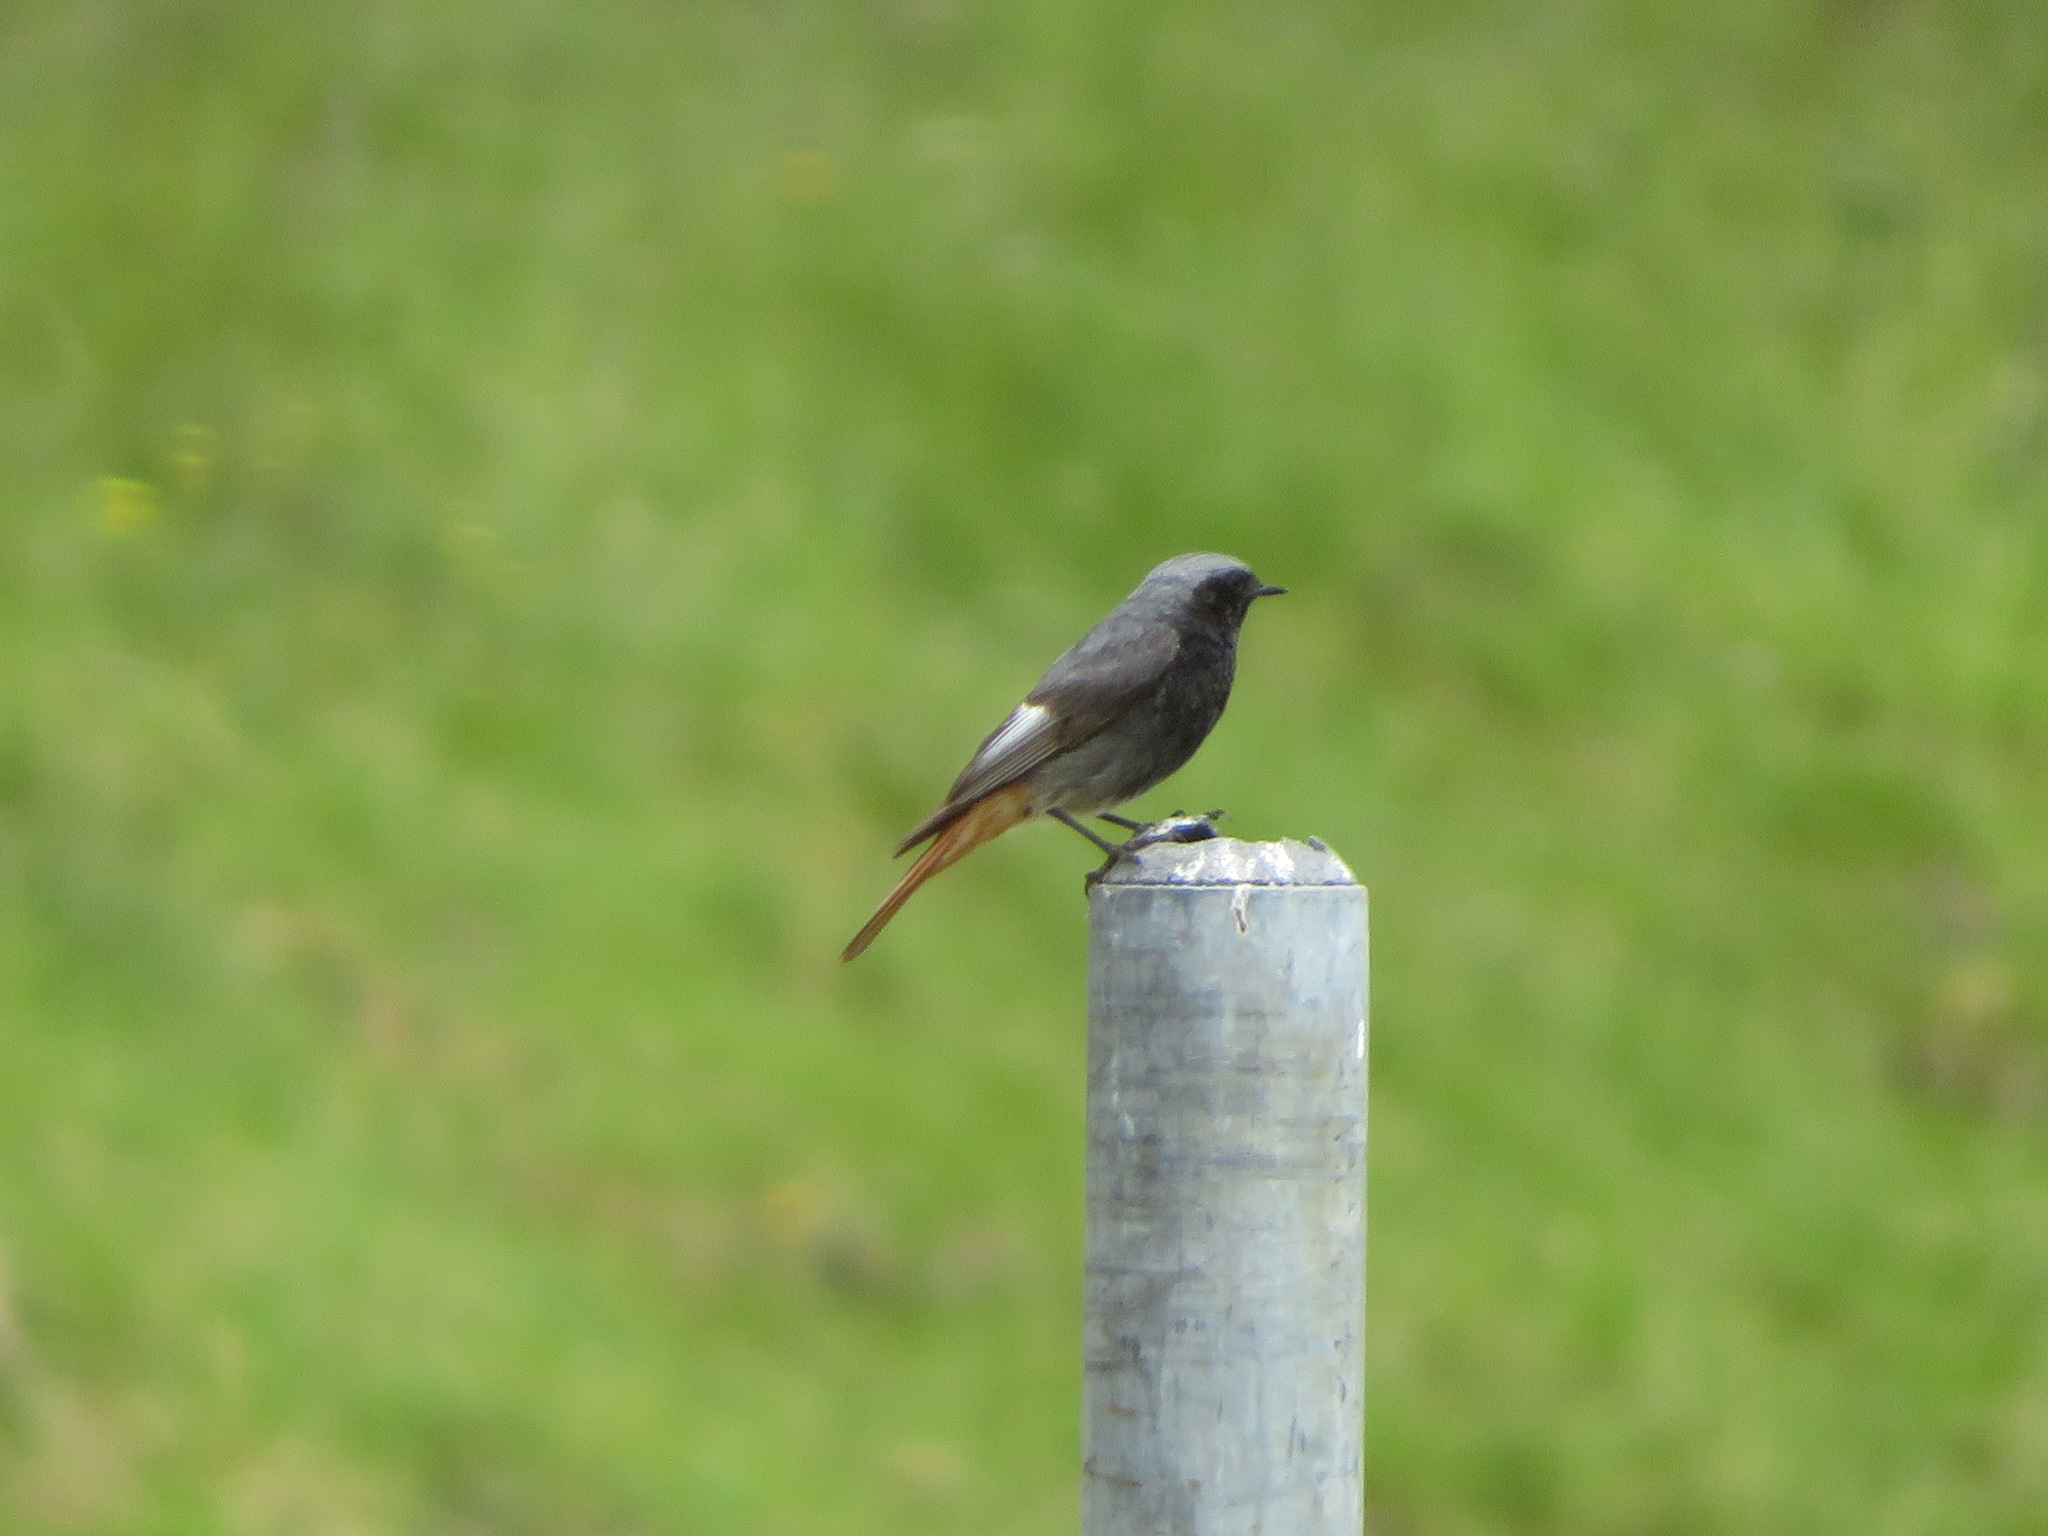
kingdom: Animalia
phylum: Chordata
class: Aves
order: Passeriformes
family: Muscicapidae
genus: Phoenicurus
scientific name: Phoenicurus ochruros
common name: Black redstart
